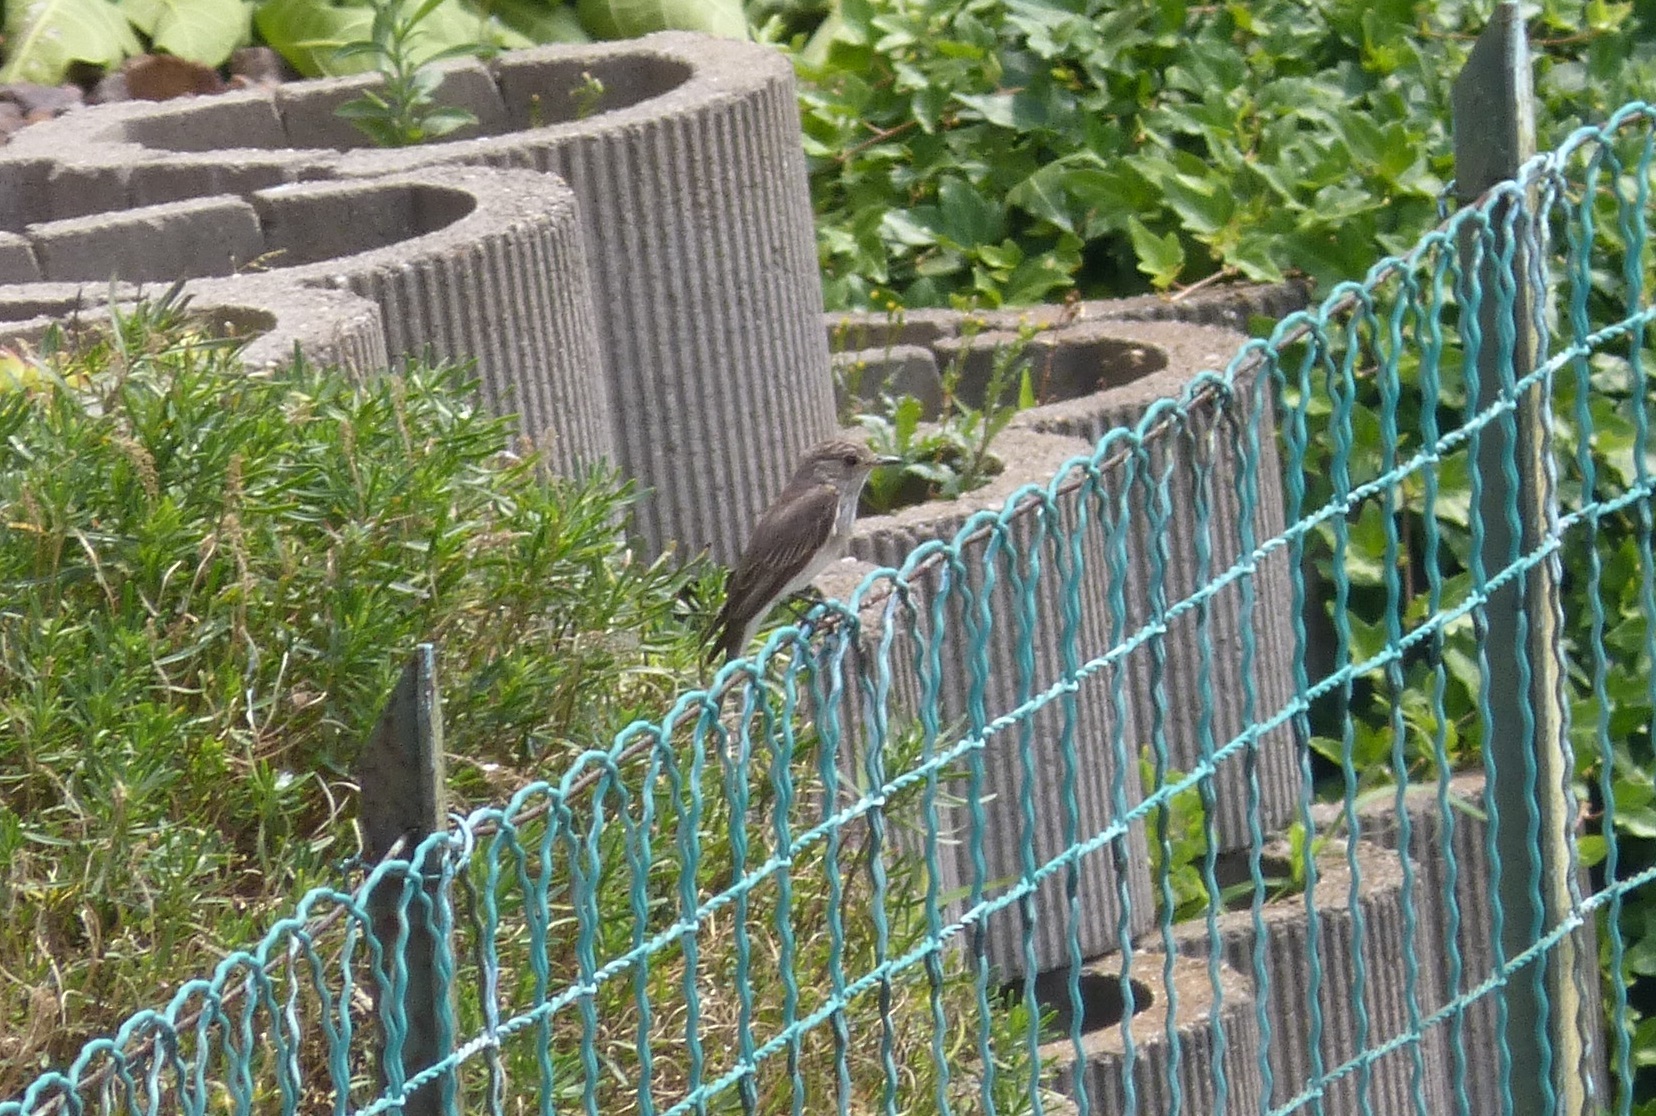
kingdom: Animalia
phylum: Chordata
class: Aves
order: Passeriformes
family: Muscicapidae
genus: Muscicapa
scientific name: Muscicapa striata
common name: Spotted flycatcher
